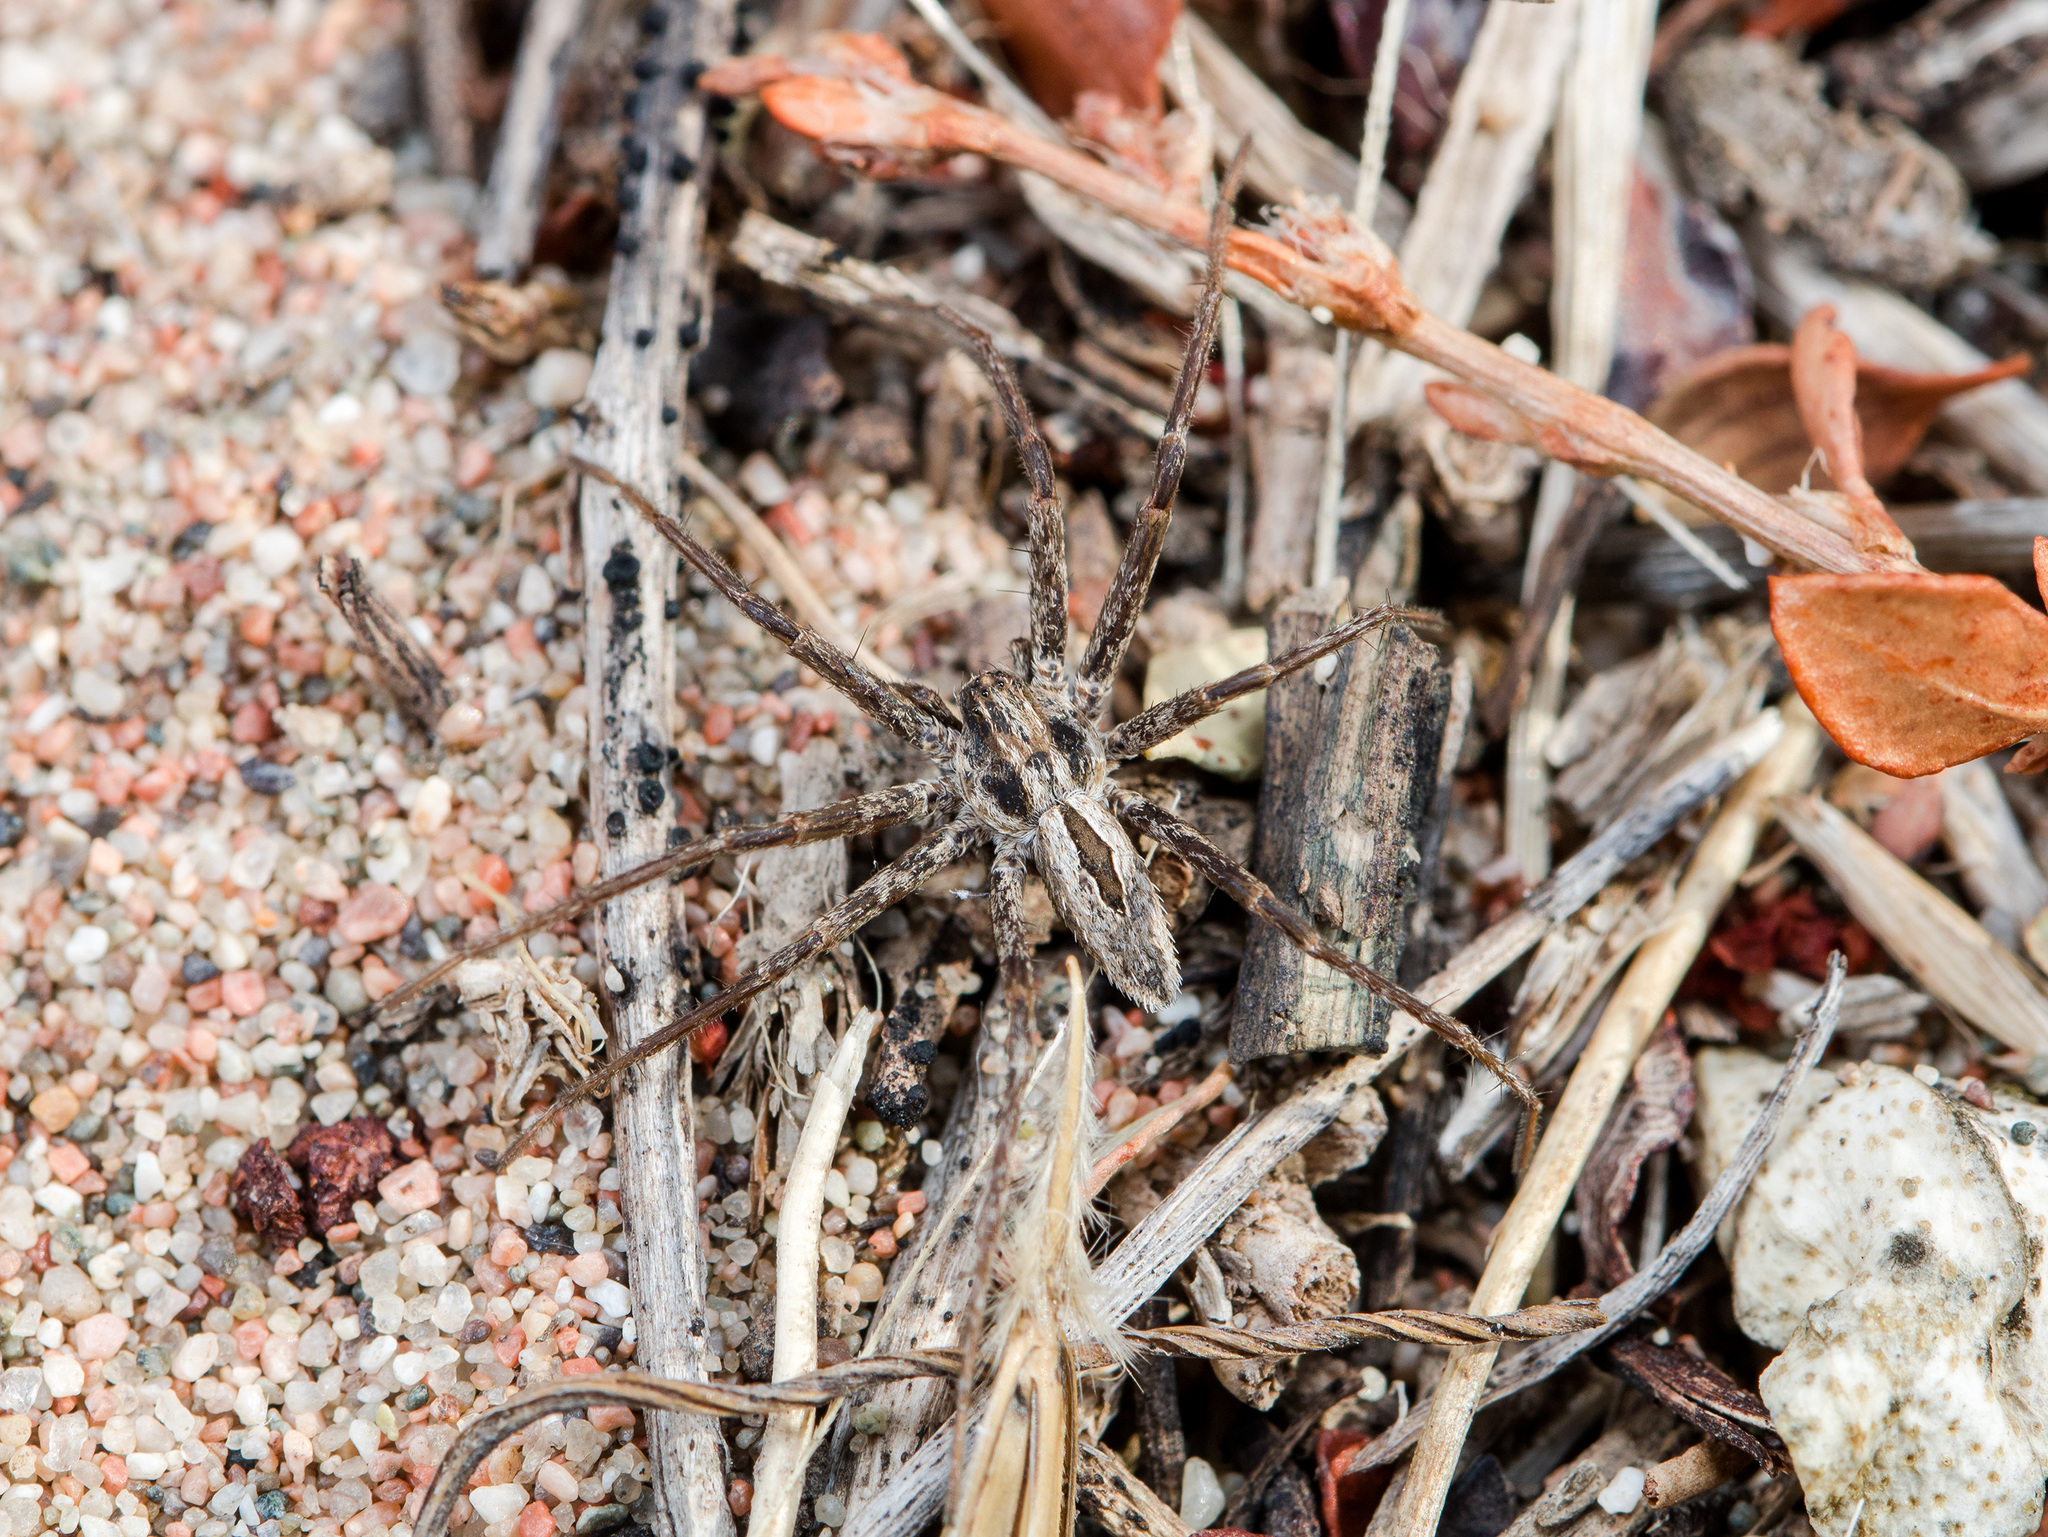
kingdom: Animalia
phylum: Arthropoda
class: Arachnida
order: Araneae
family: Philodromidae
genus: Thanatus
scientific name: Thanatus pictus
